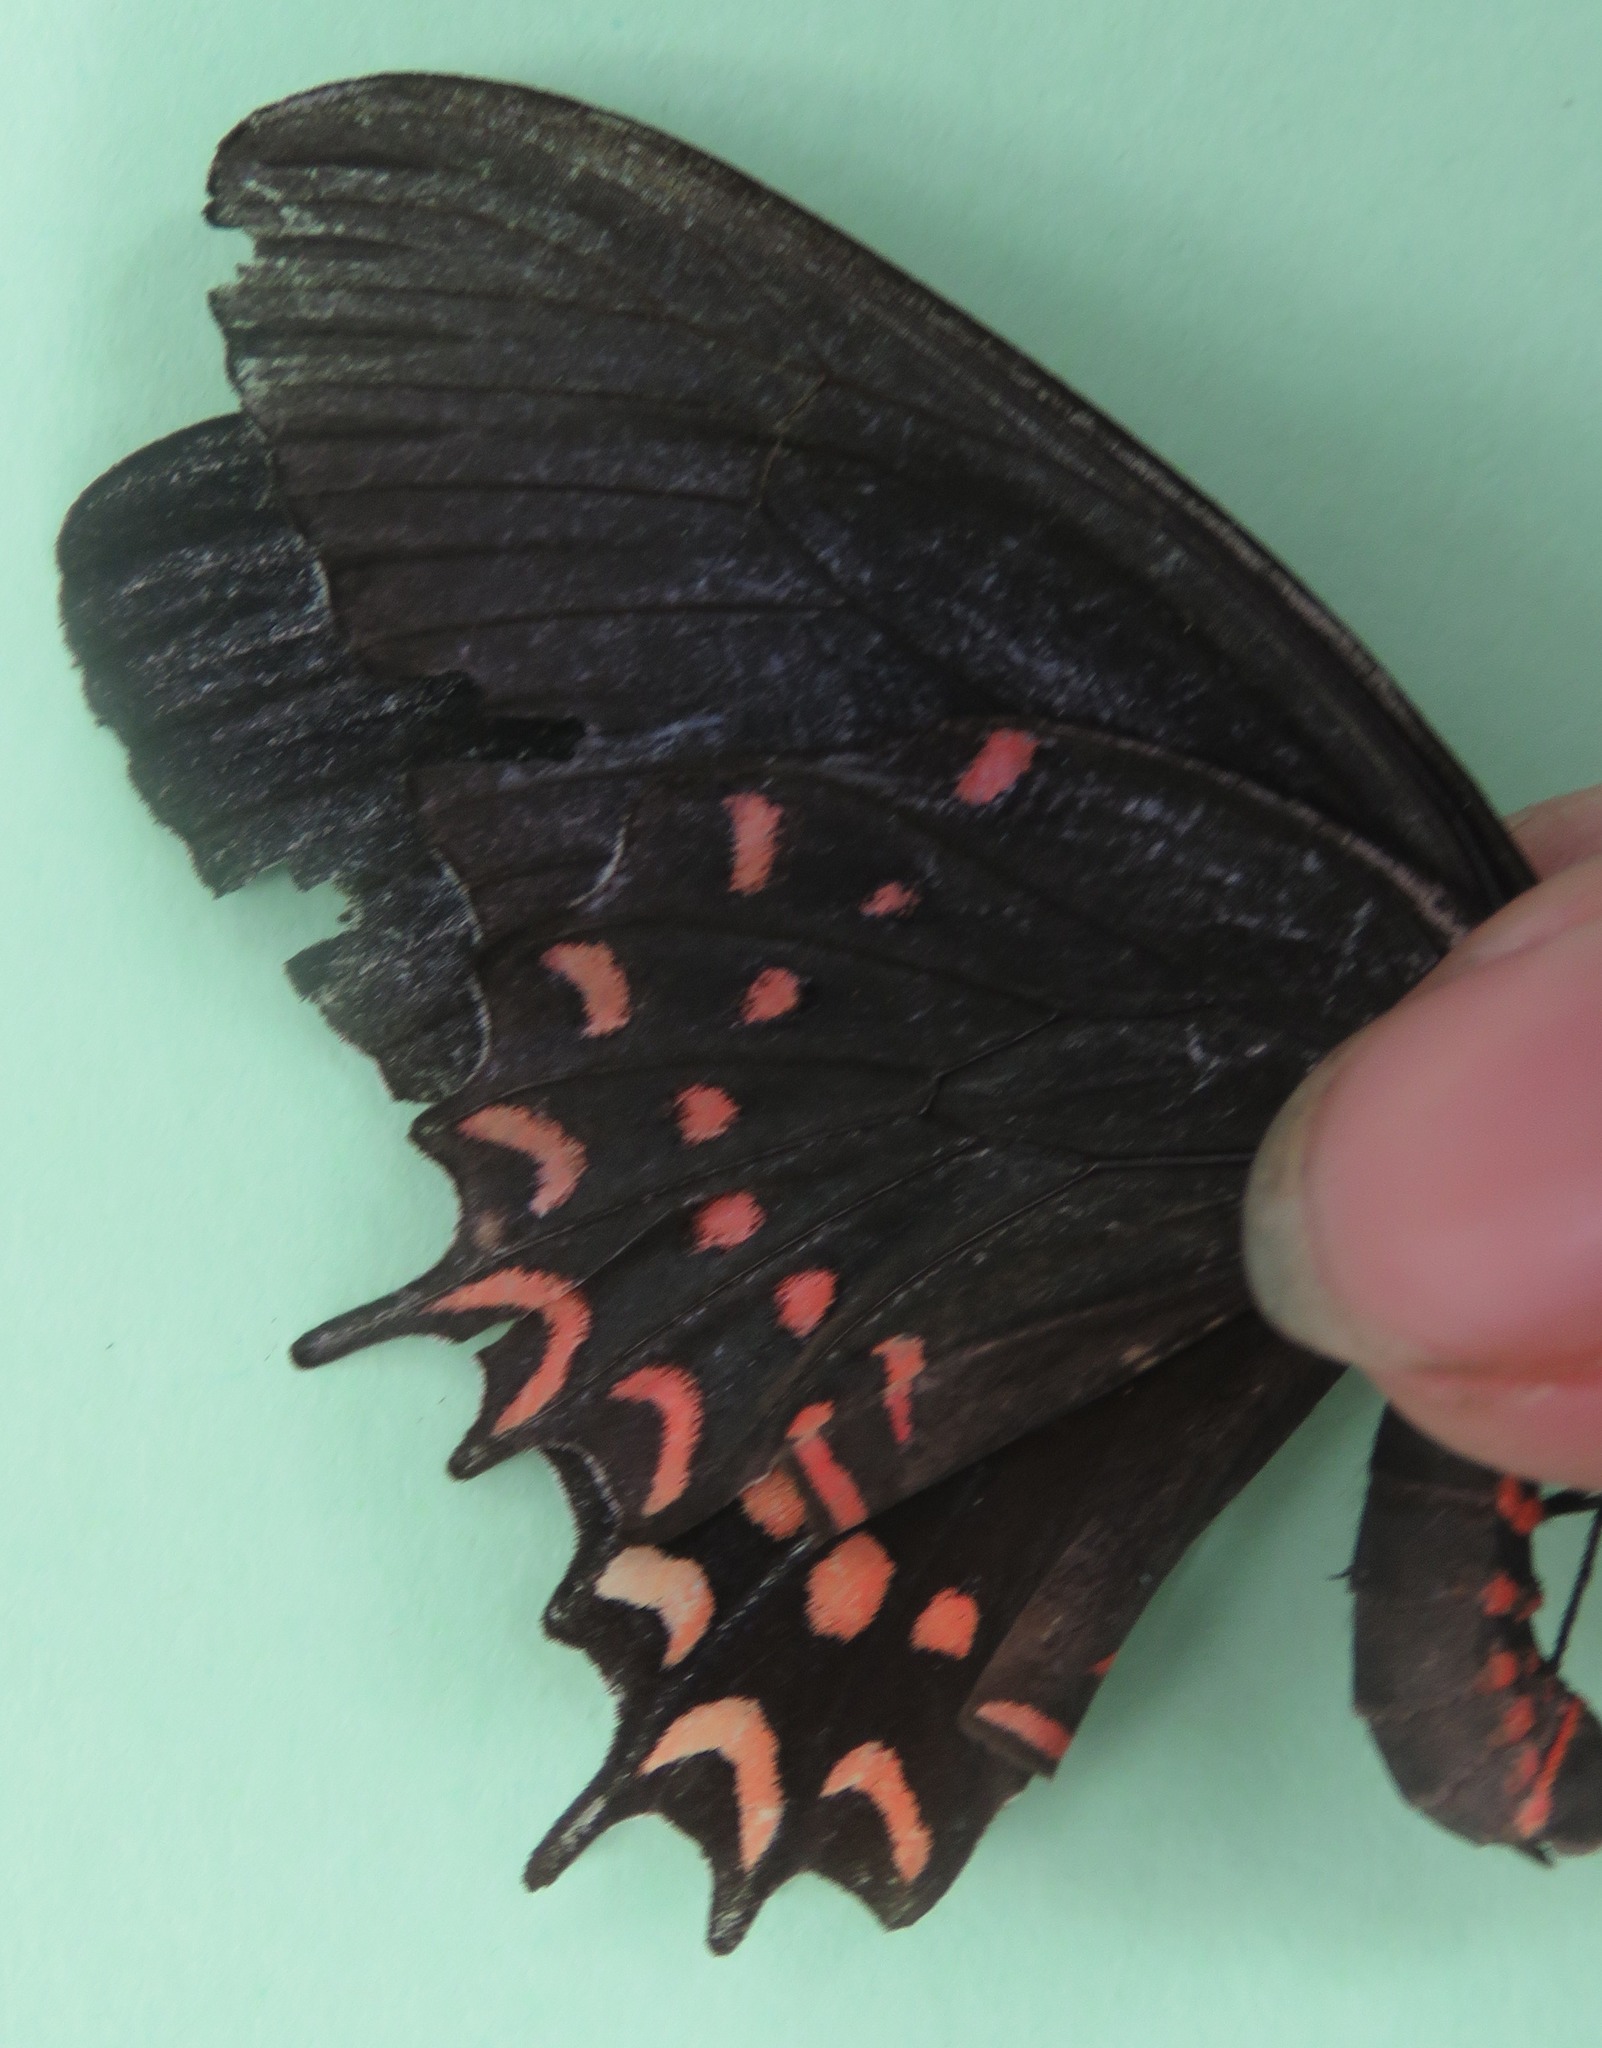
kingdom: Animalia
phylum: Arthropoda
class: Insecta
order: Lepidoptera
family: Papilionidae
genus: Parides
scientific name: Parides photinus
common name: Pink-spotted cattleheart
